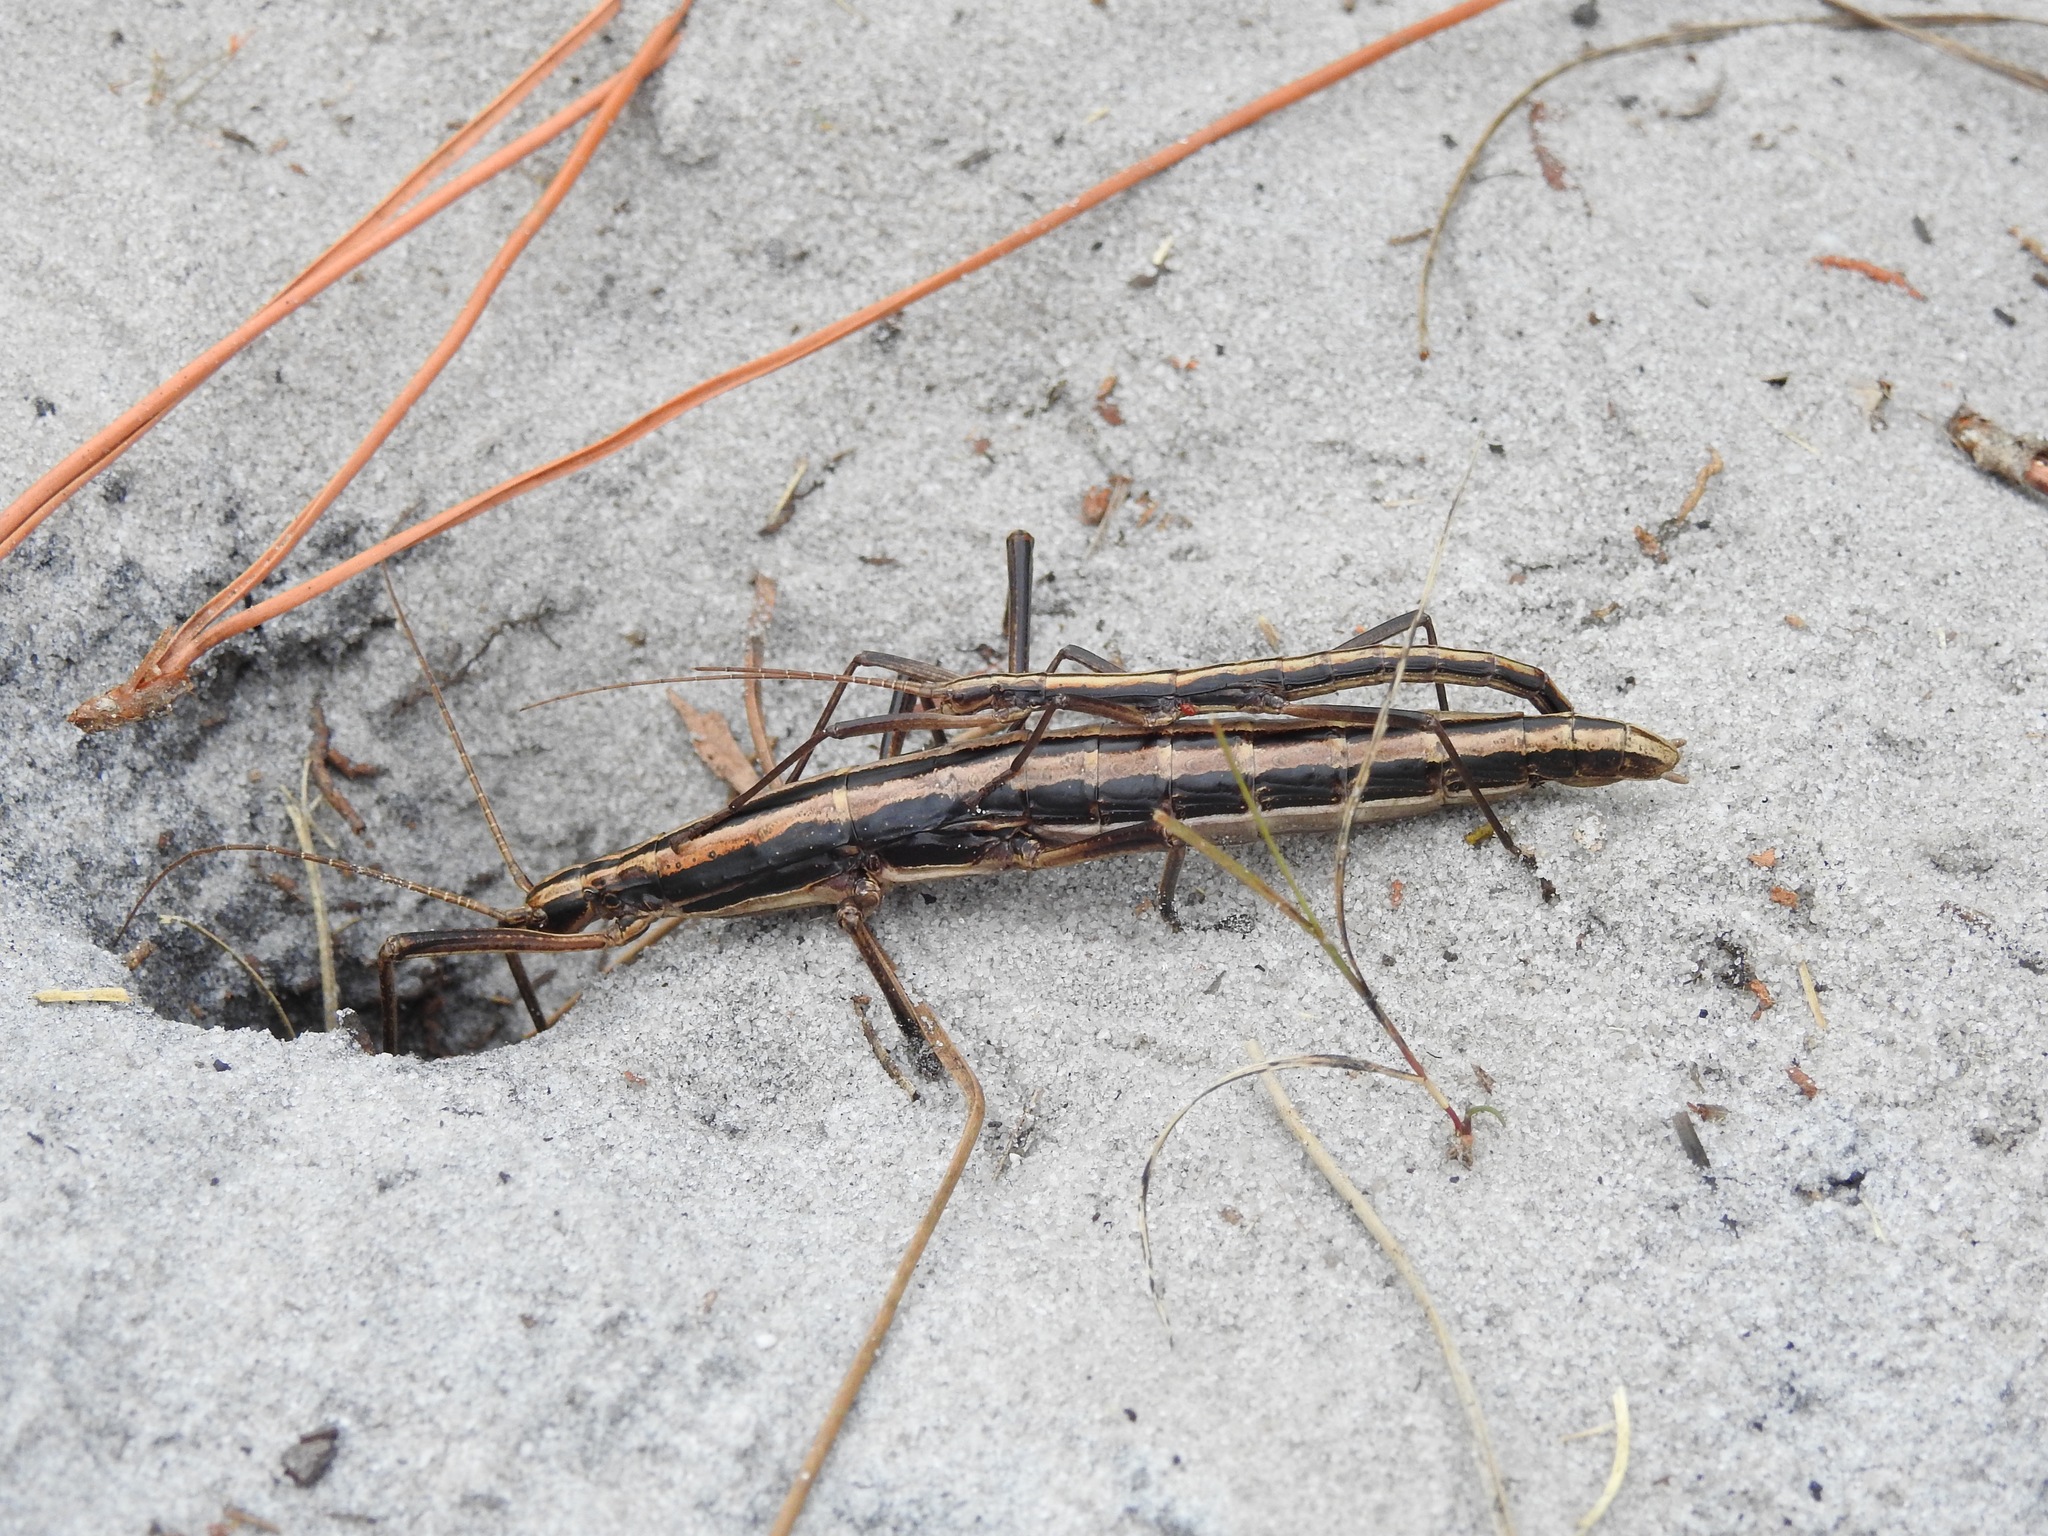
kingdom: Animalia
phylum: Arthropoda
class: Insecta
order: Phasmida
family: Pseudophasmatidae
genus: Anisomorpha
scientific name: Anisomorpha buprestoides
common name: Florida stick insect
